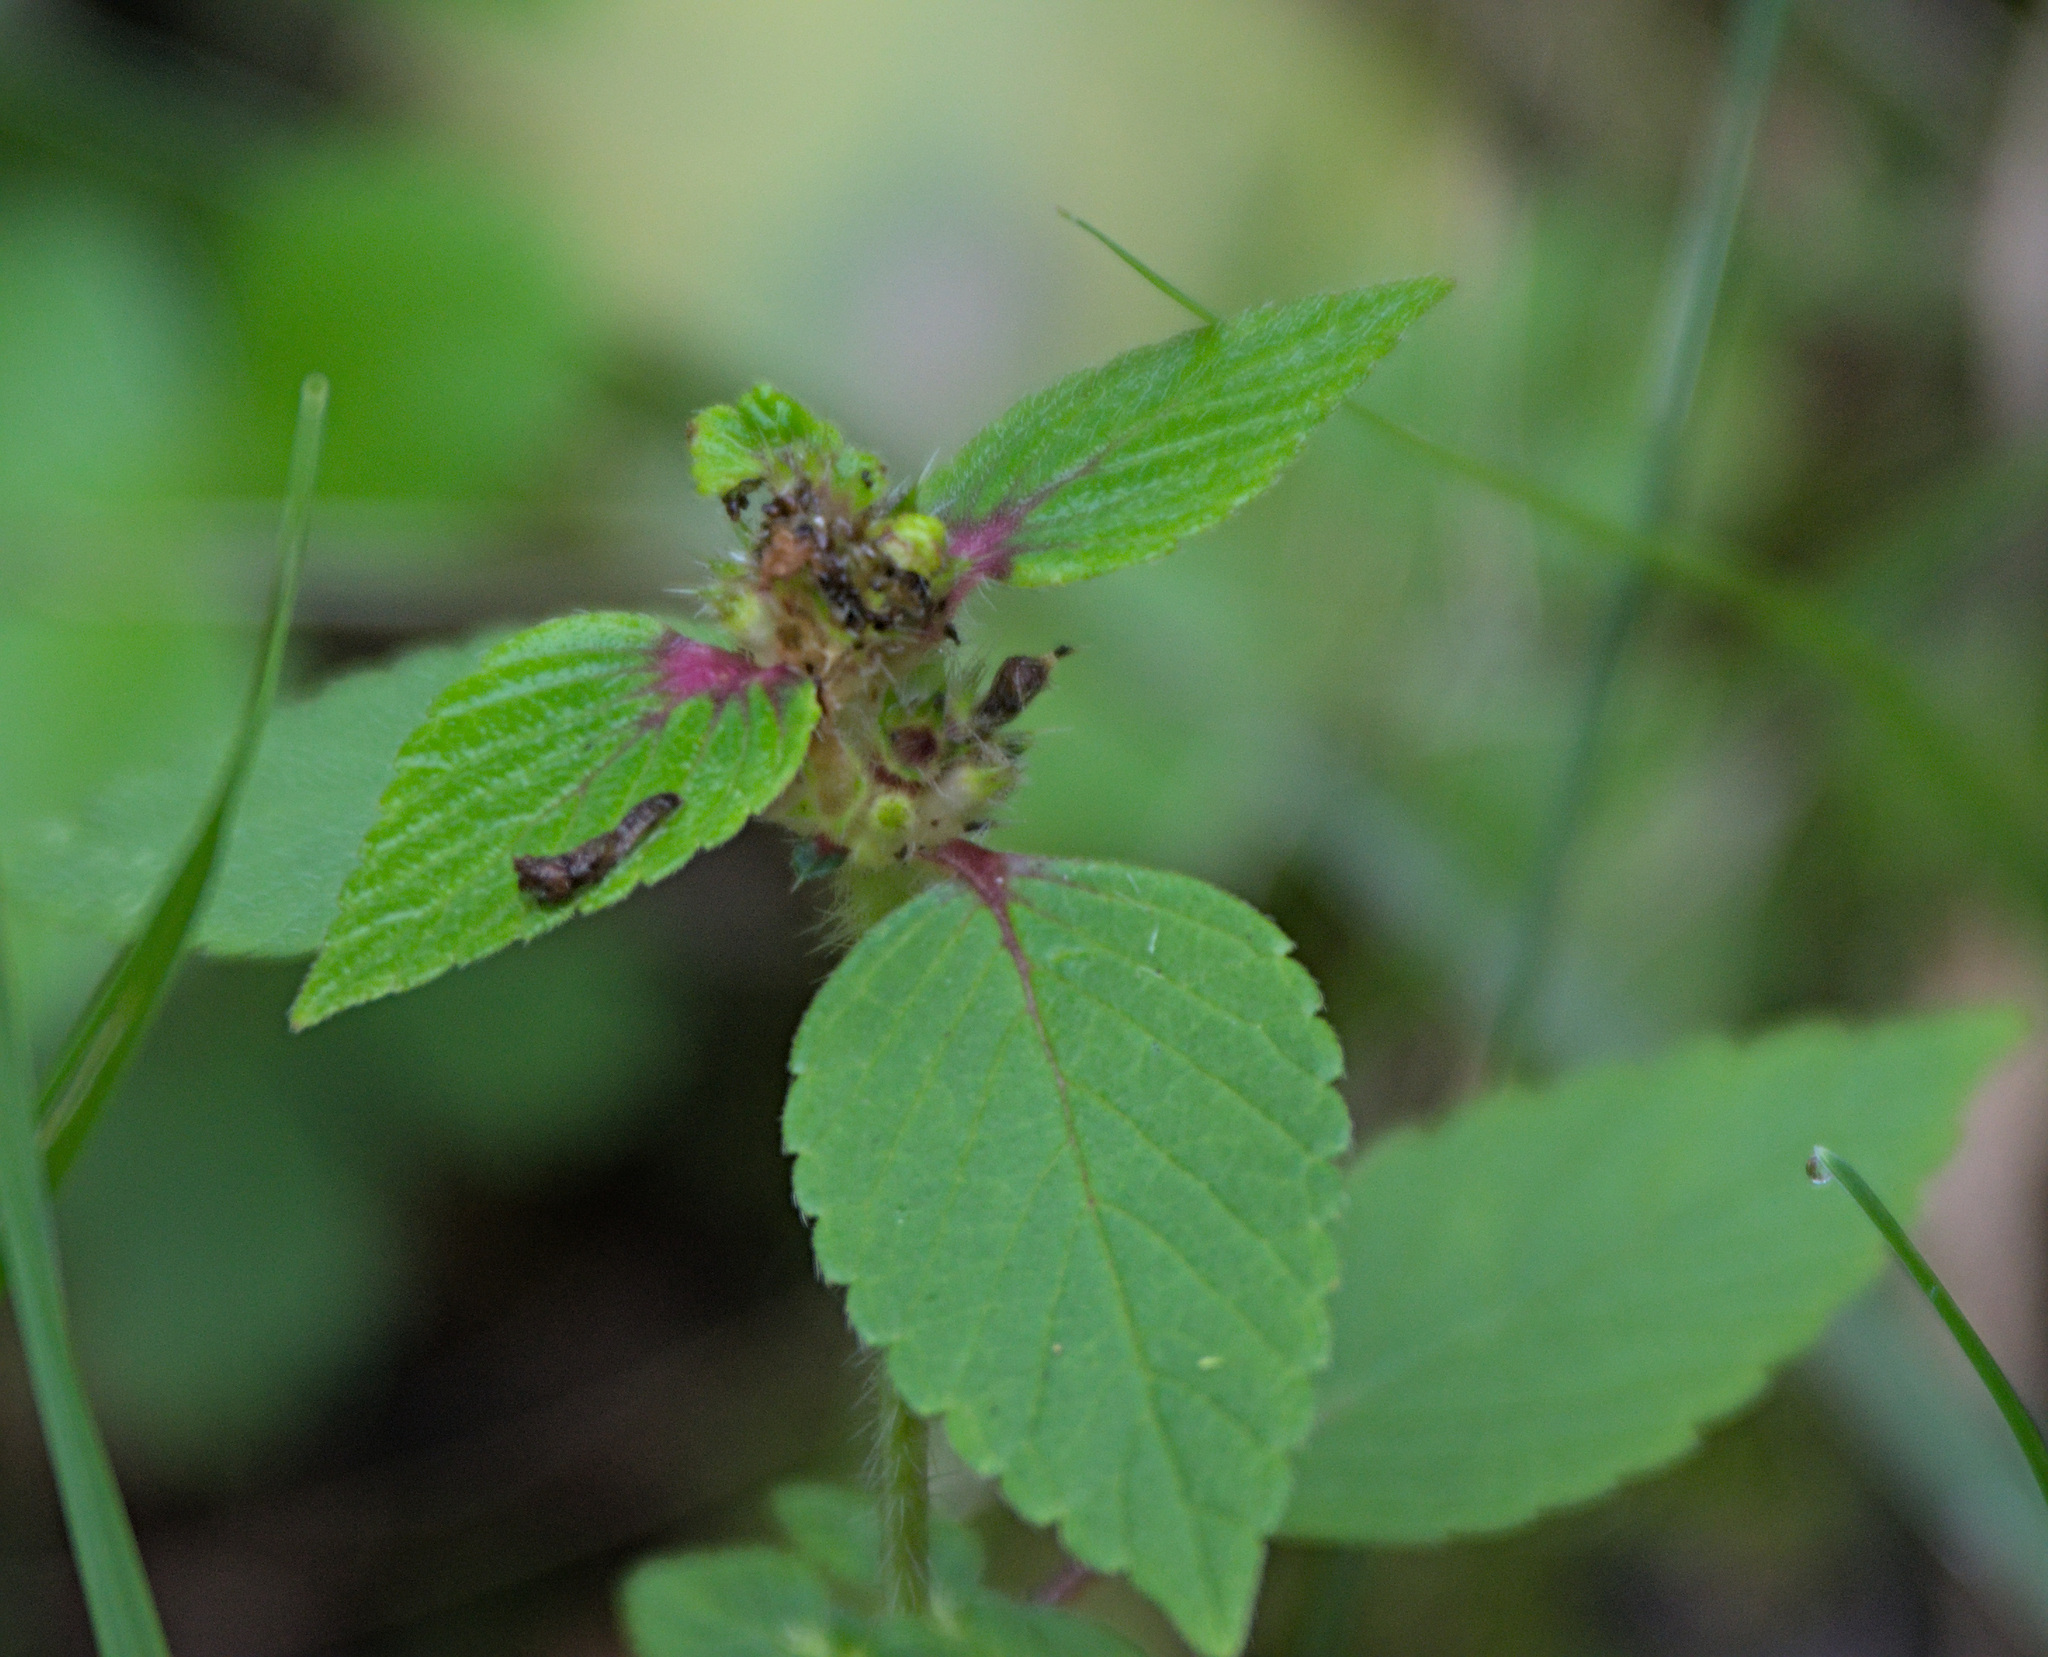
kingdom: Plantae
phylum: Tracheophyta
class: Magnoliopsida
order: Lamiales
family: Lamiaceae
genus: Galeopsis
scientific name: Galeopsis bifida
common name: Bifid hemp-nettle
